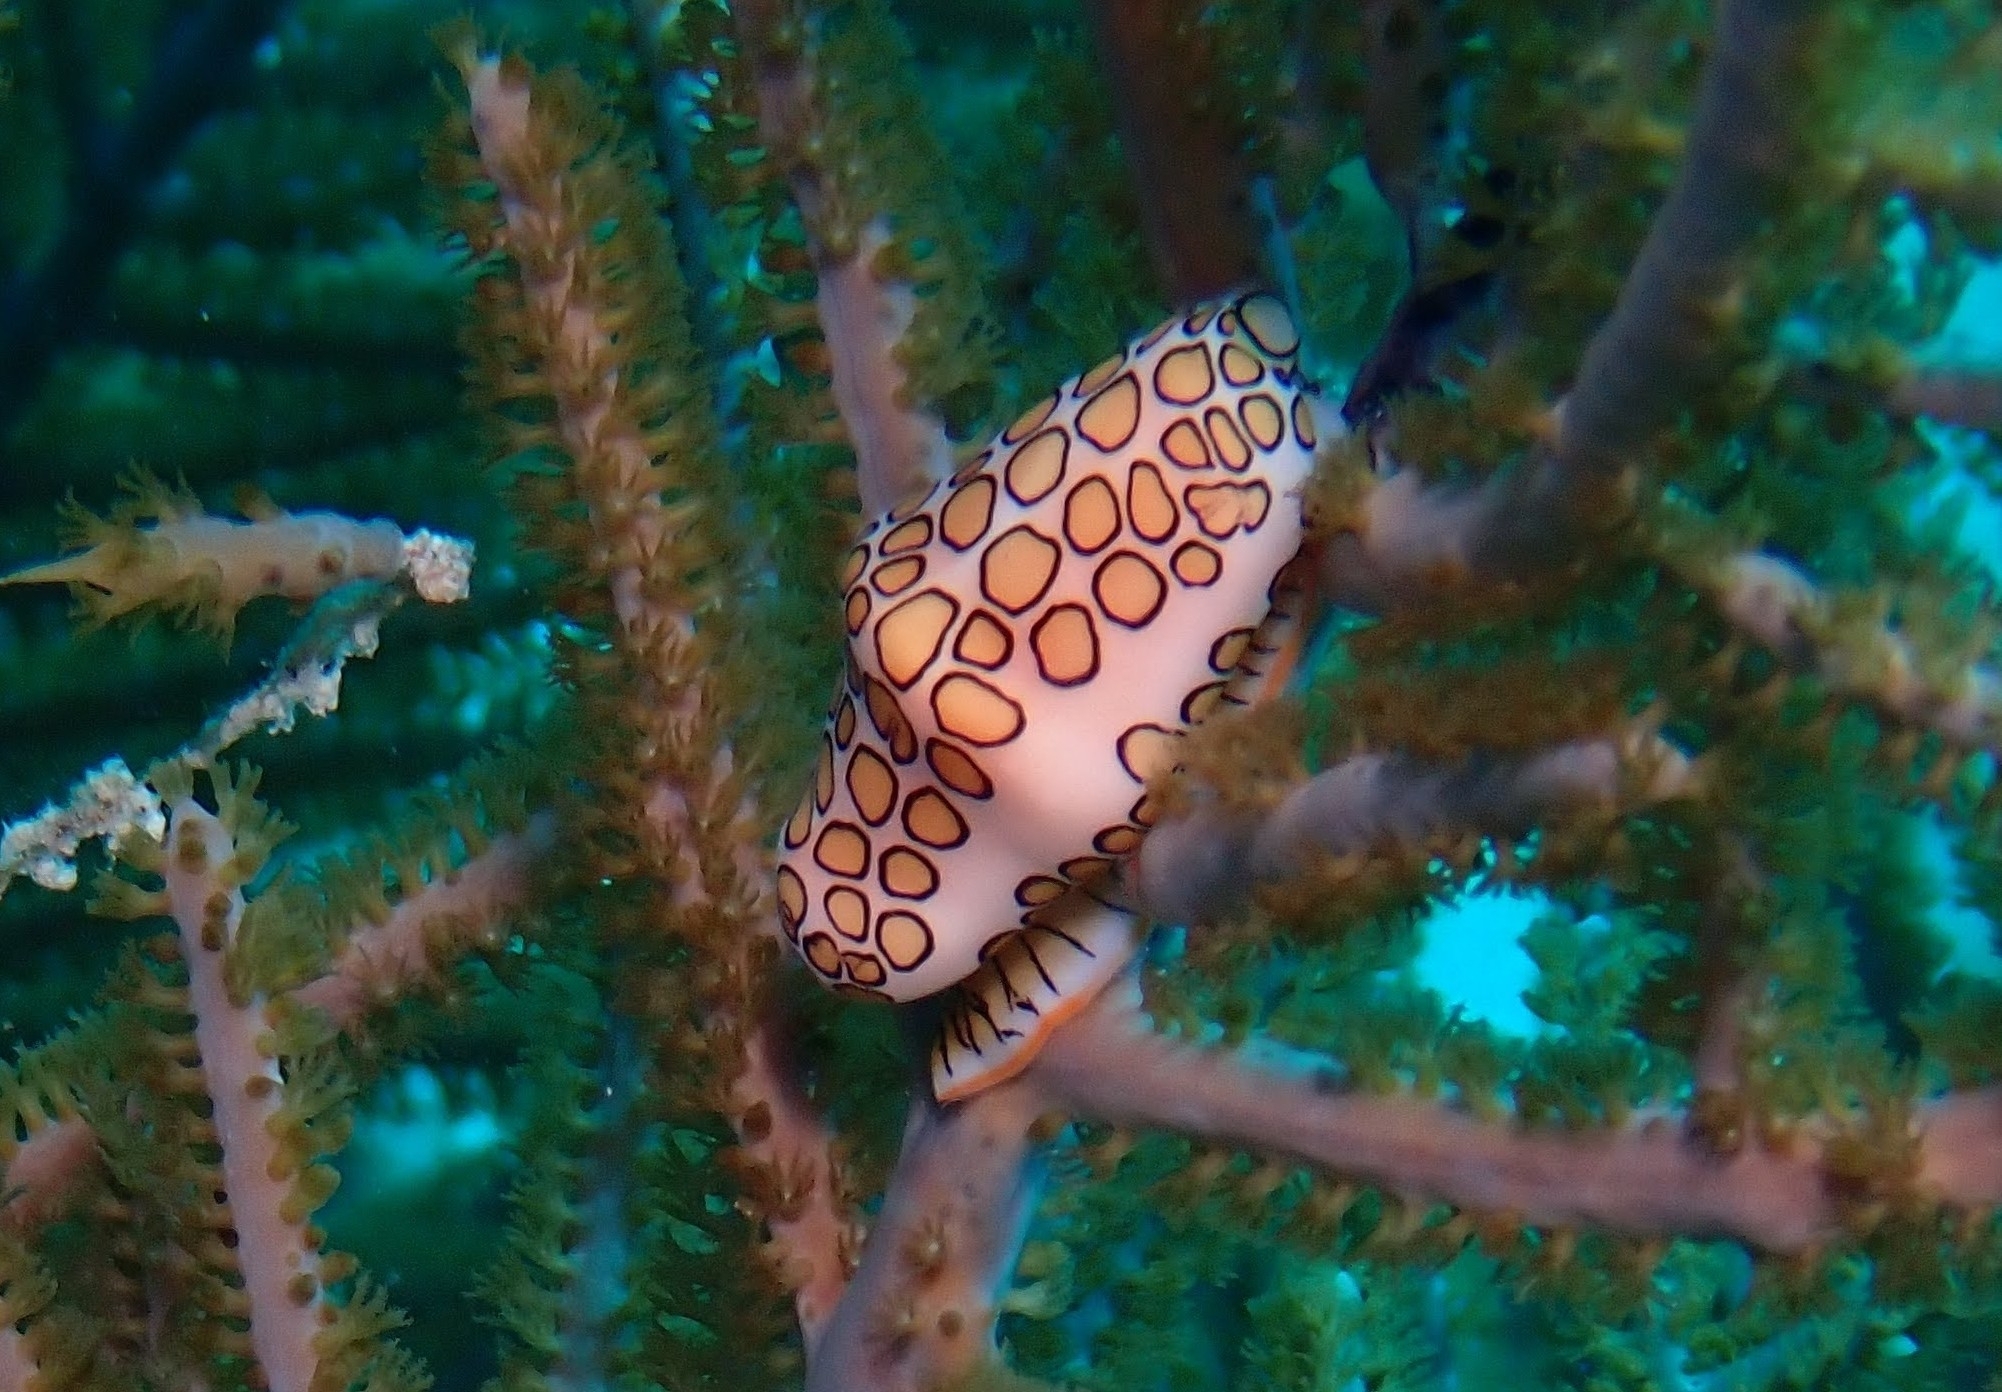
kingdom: Animalia
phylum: Mollusca
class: Gastropoda
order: Littorinimorpha
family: Ovulidae
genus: Cyphoma
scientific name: Cyphoma gibbosum
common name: Flamingo tongue
